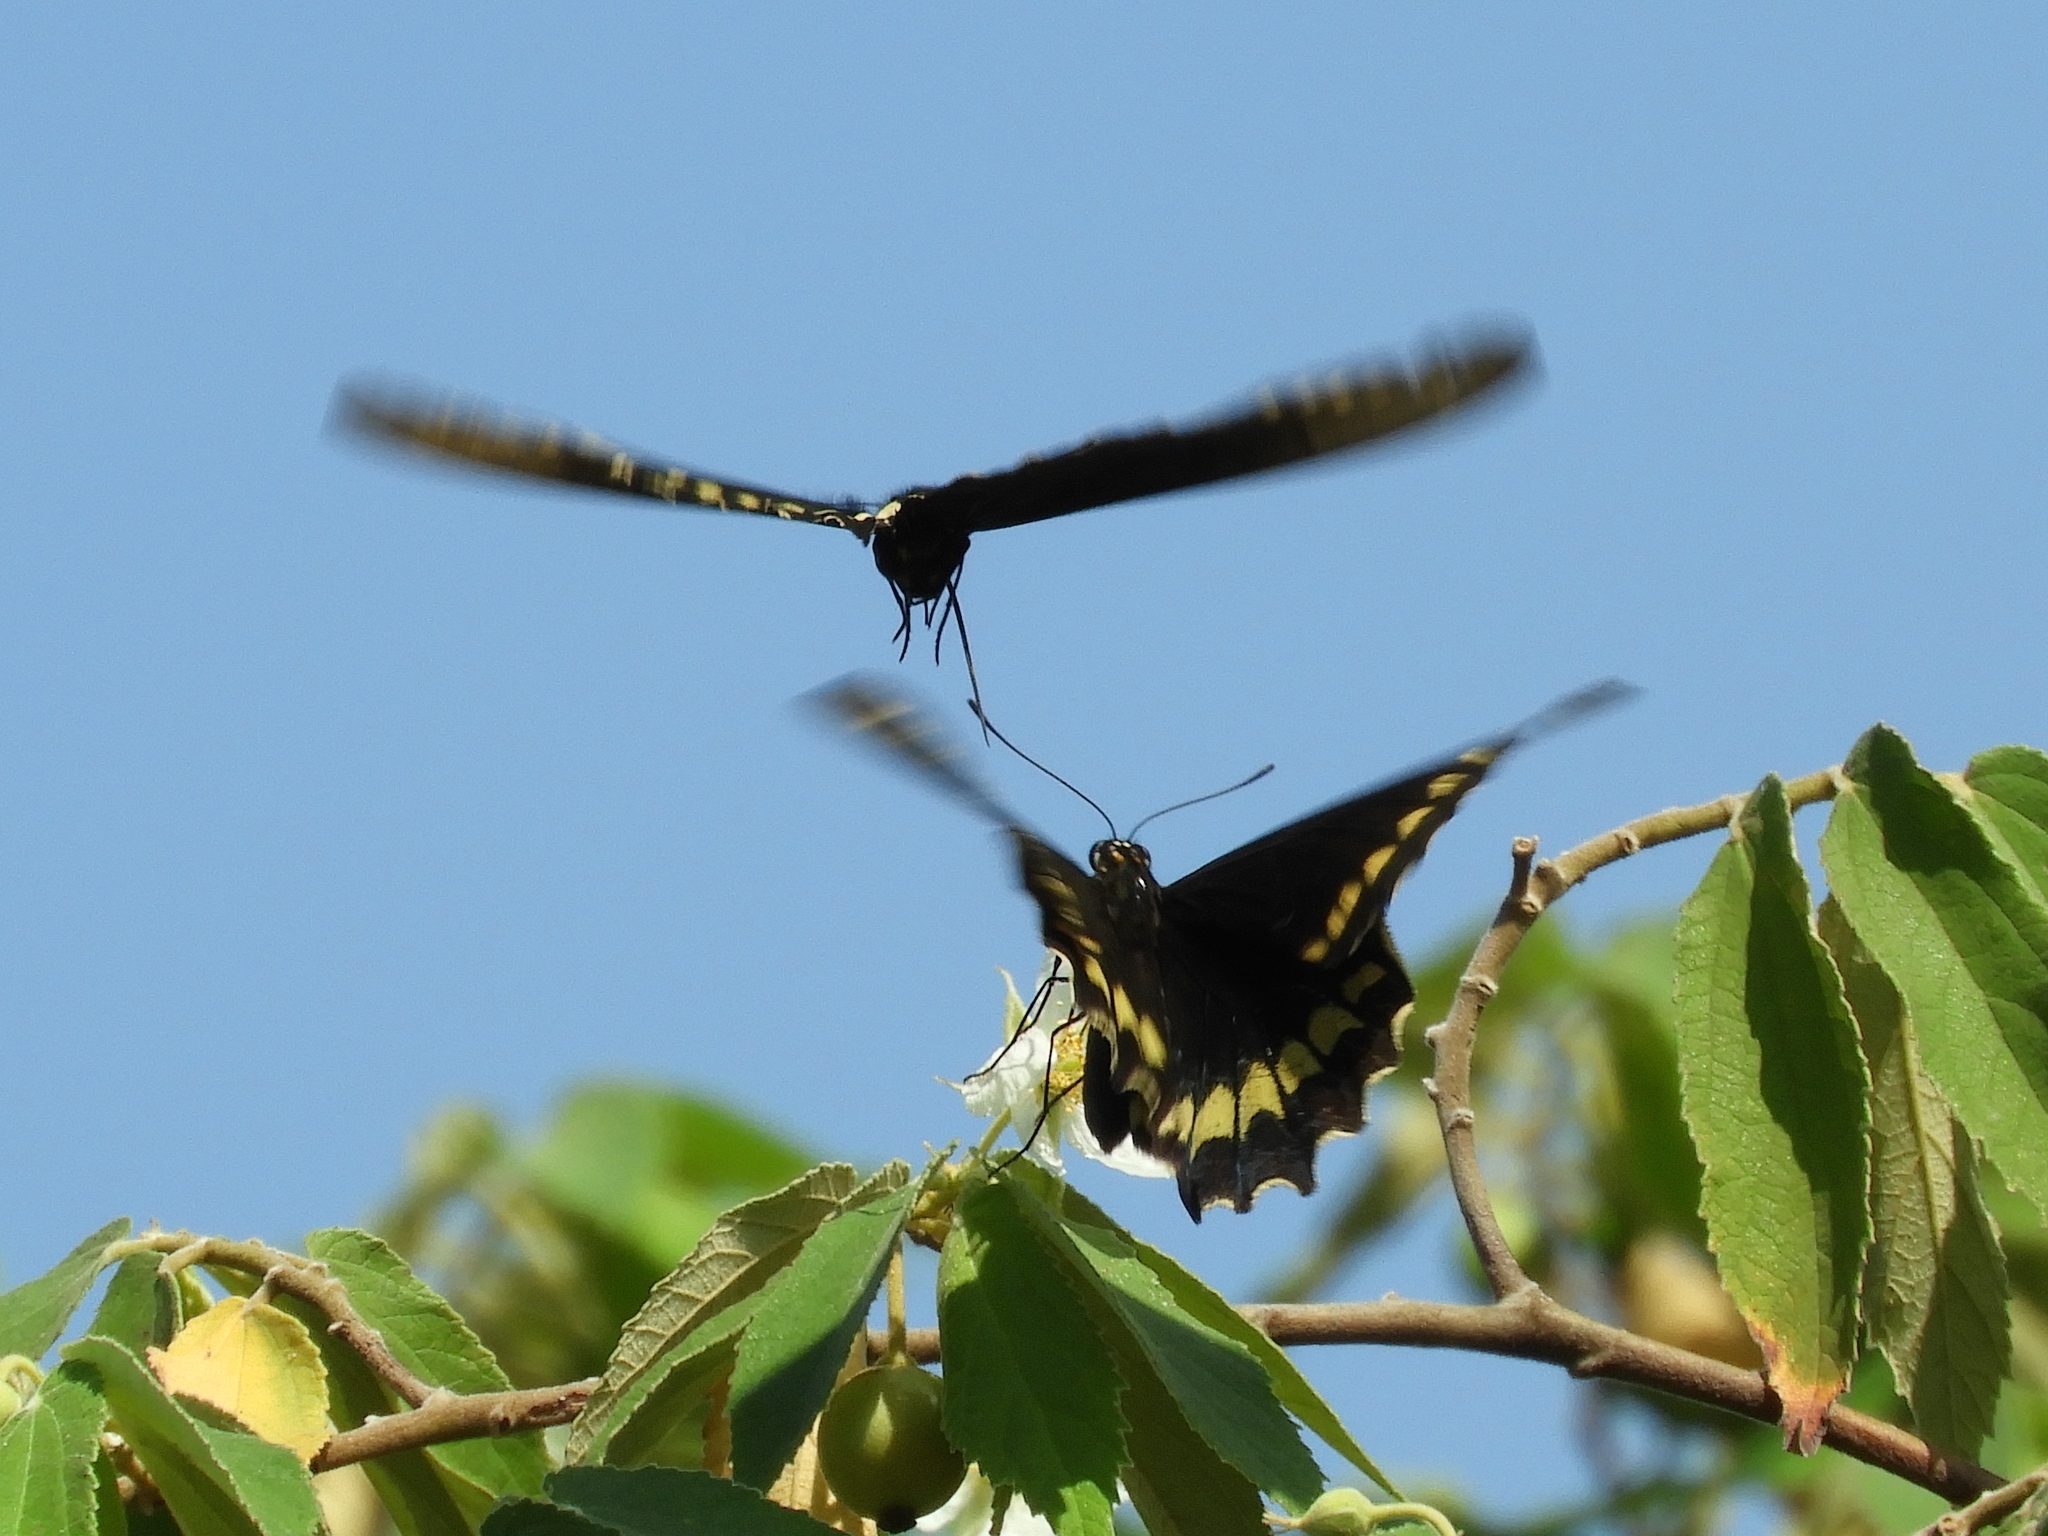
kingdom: Animalia
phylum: Arthropoda
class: Insecta
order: Lepidoptera
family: Papilionidae
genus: Battus
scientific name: Battus polydamas
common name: Polydamas swallowtail
